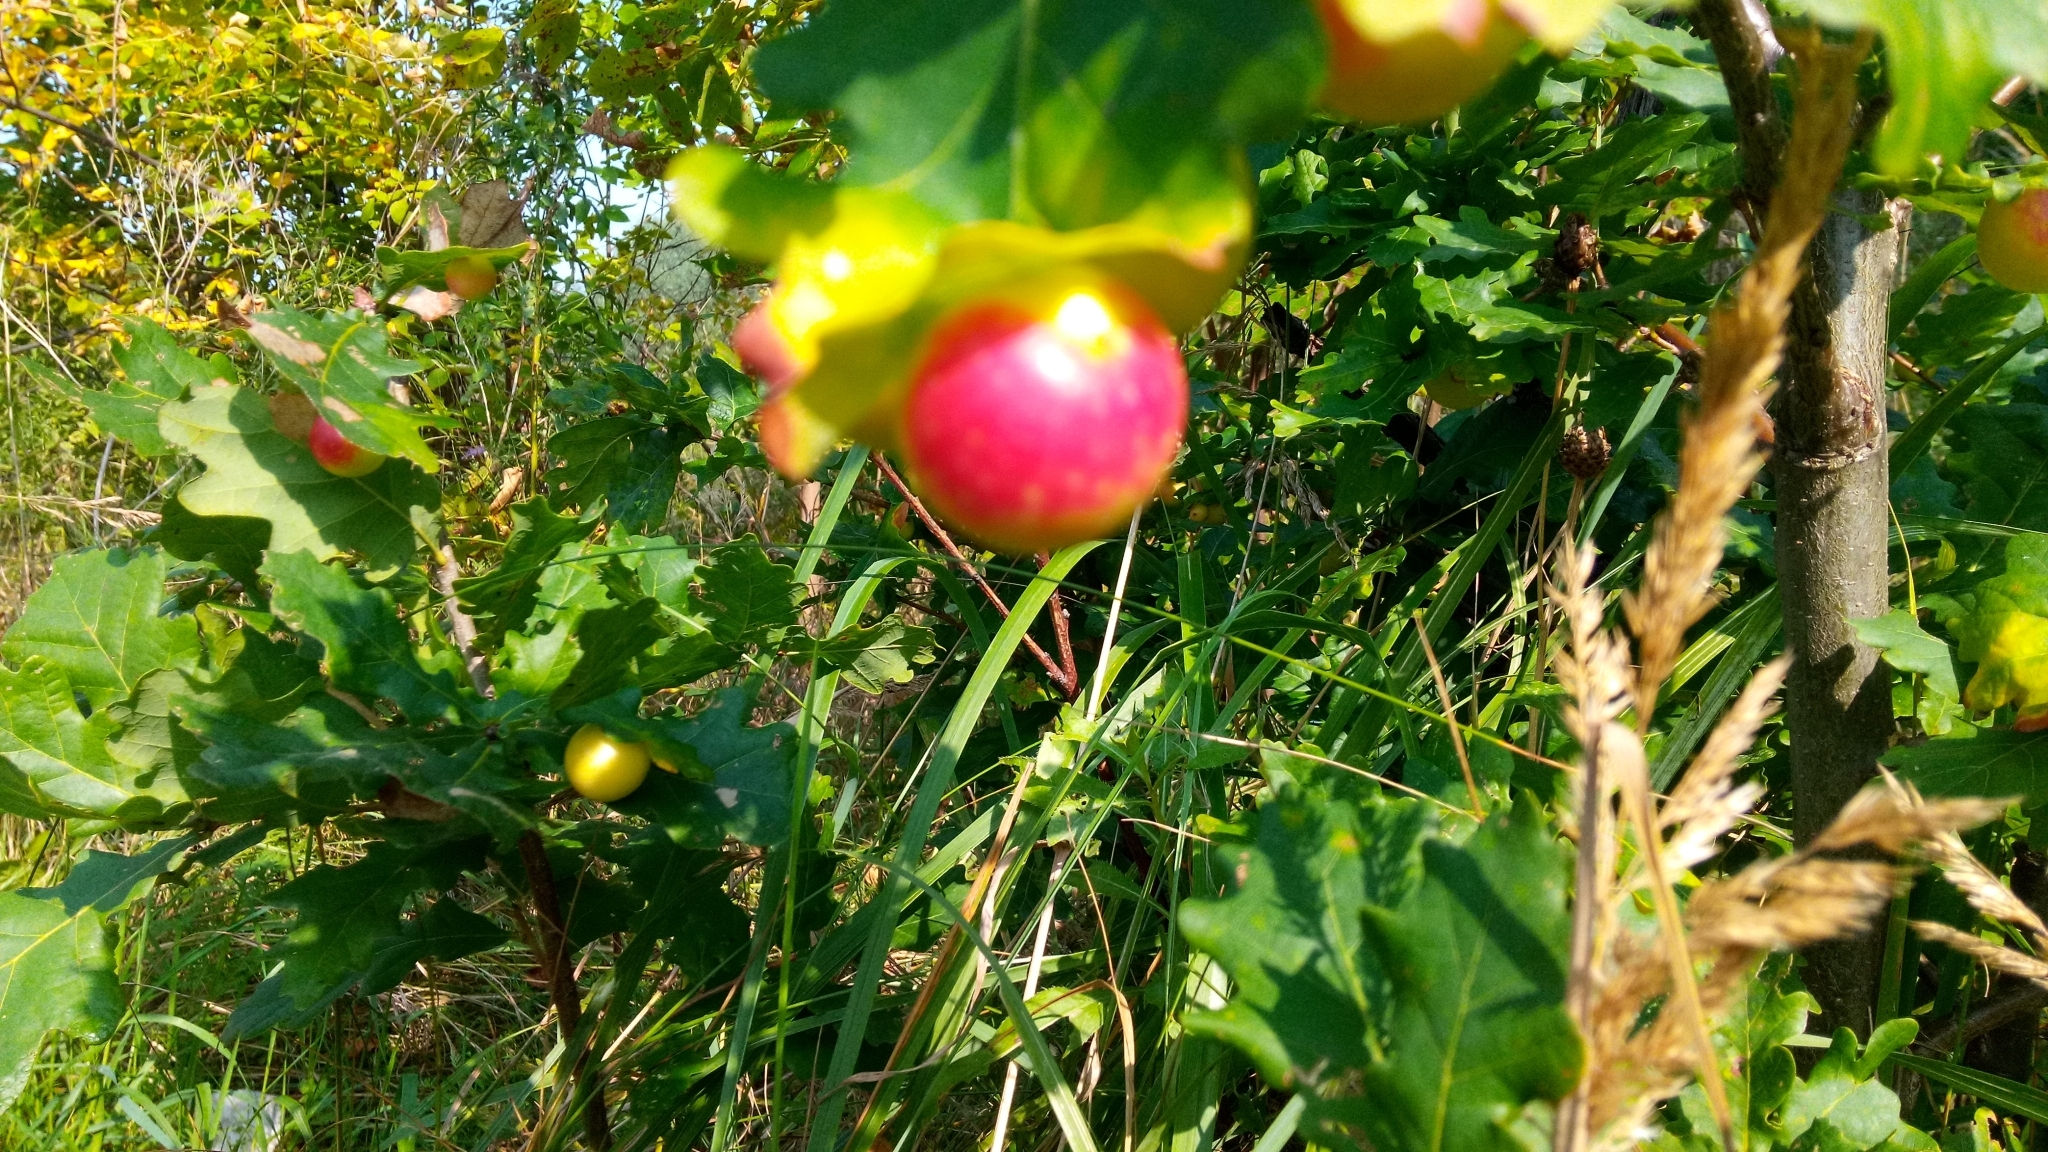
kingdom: Animalia
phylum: Arthropoda
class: Insecta
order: Hymenoptera
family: Cynipidae
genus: Cynips
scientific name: Cynips quercusfolii
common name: Cherry gall
